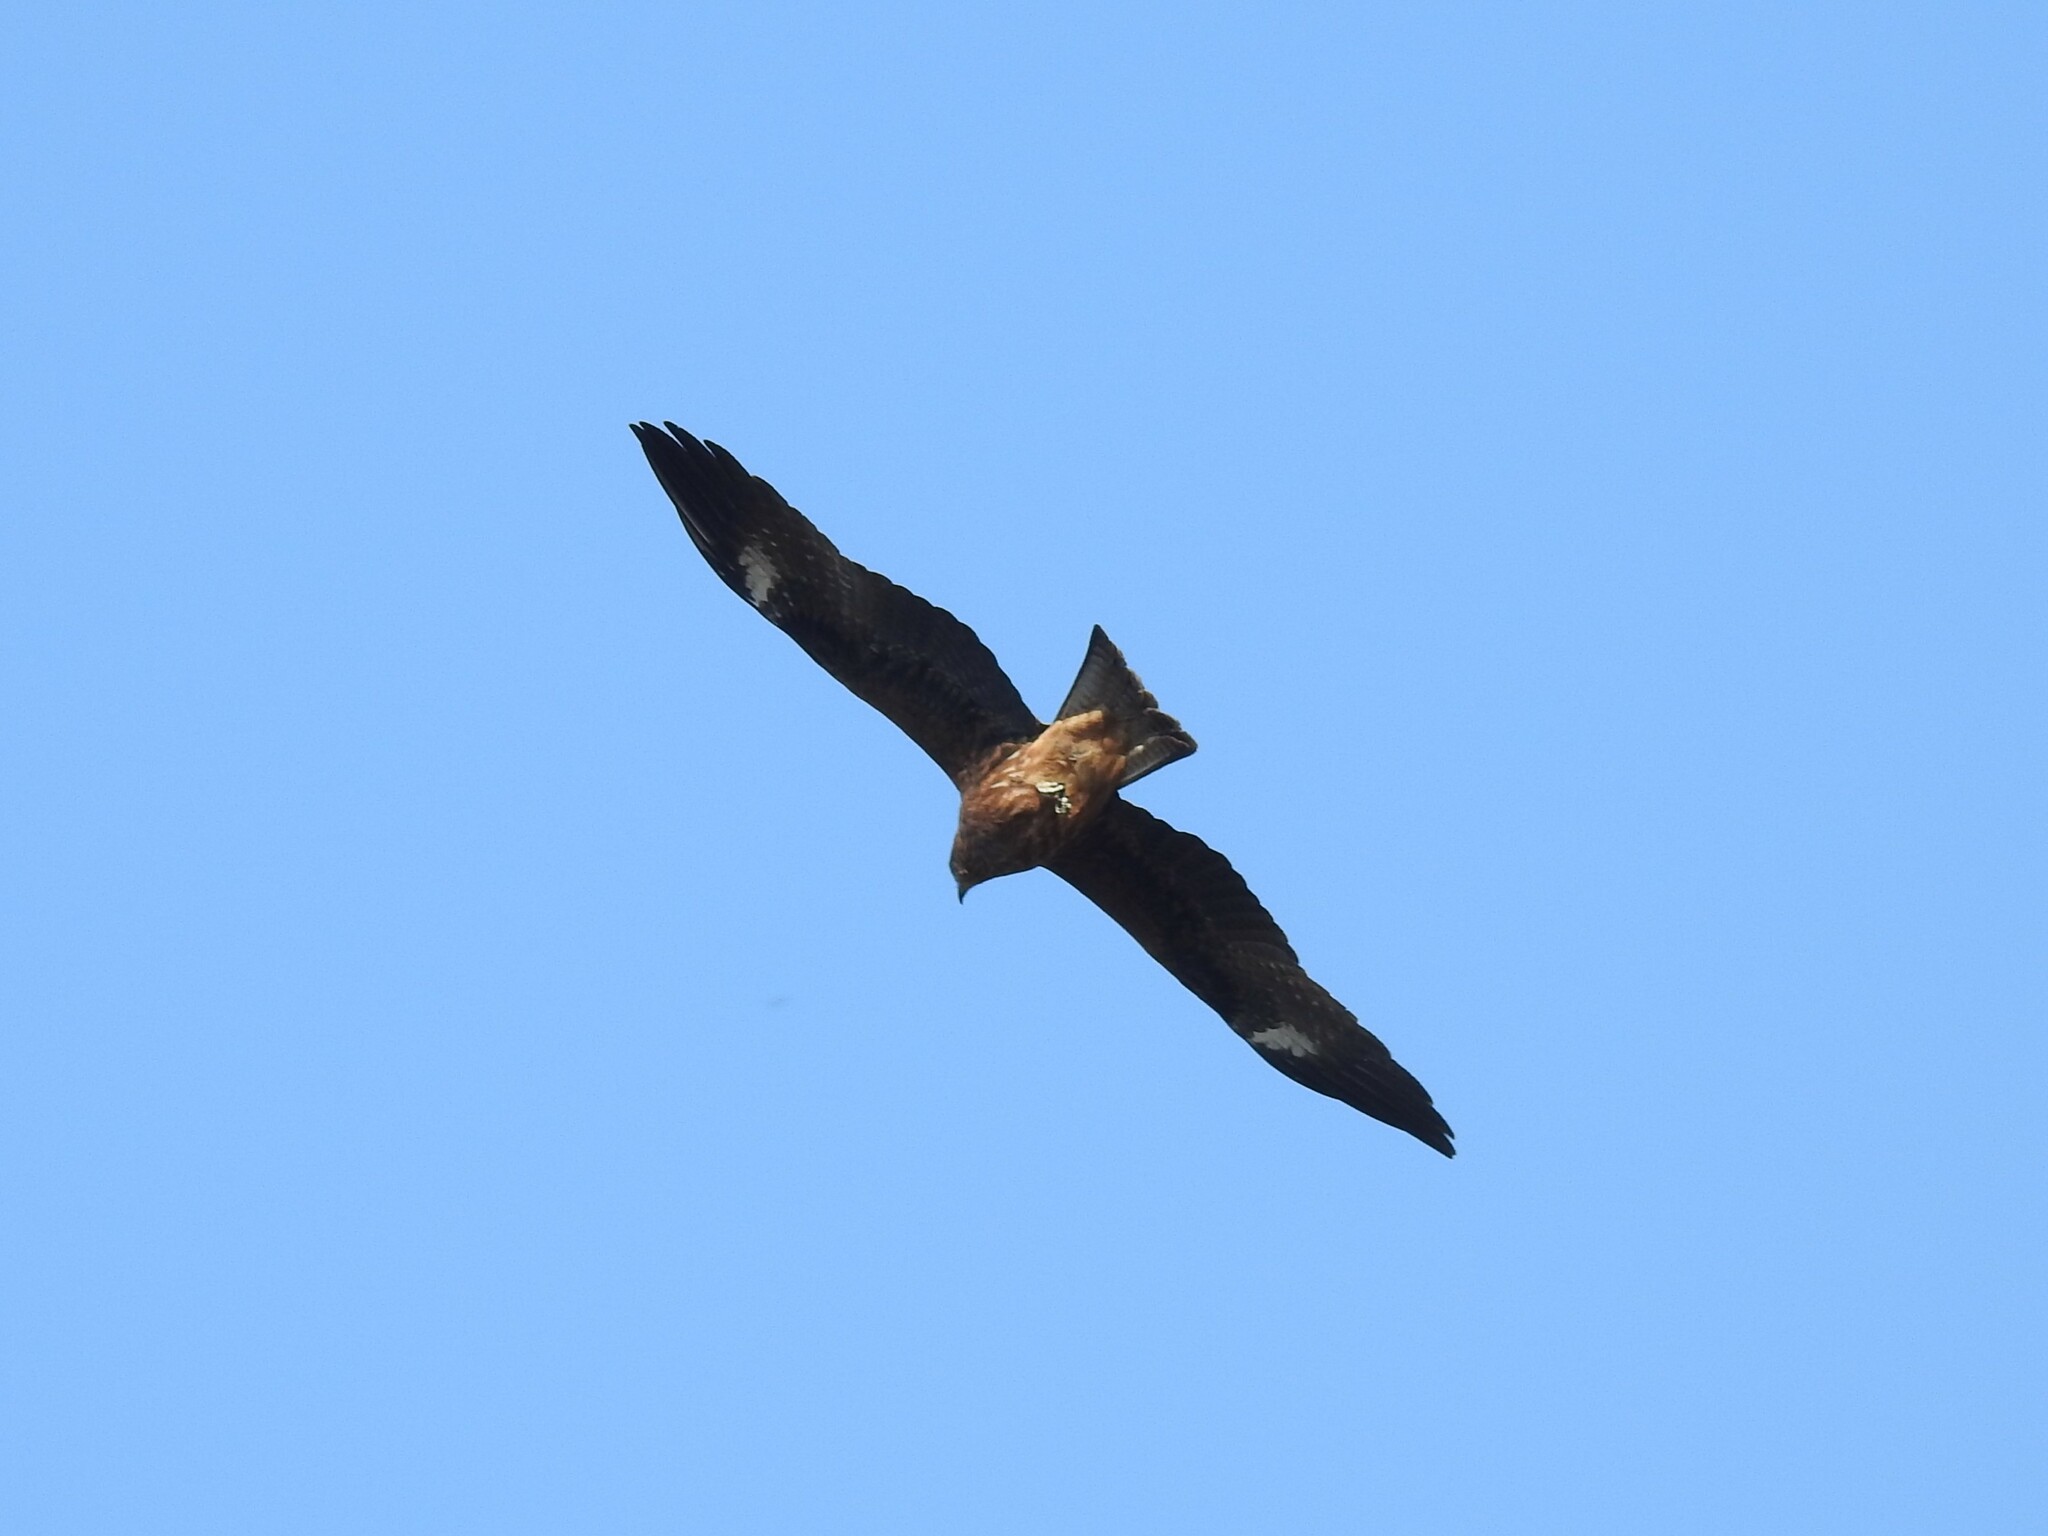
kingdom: Animalia
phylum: Chordata
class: Aves
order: Accipitriformes
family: Accipitridae
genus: Milvus
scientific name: Milvus migrans
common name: Black kite
